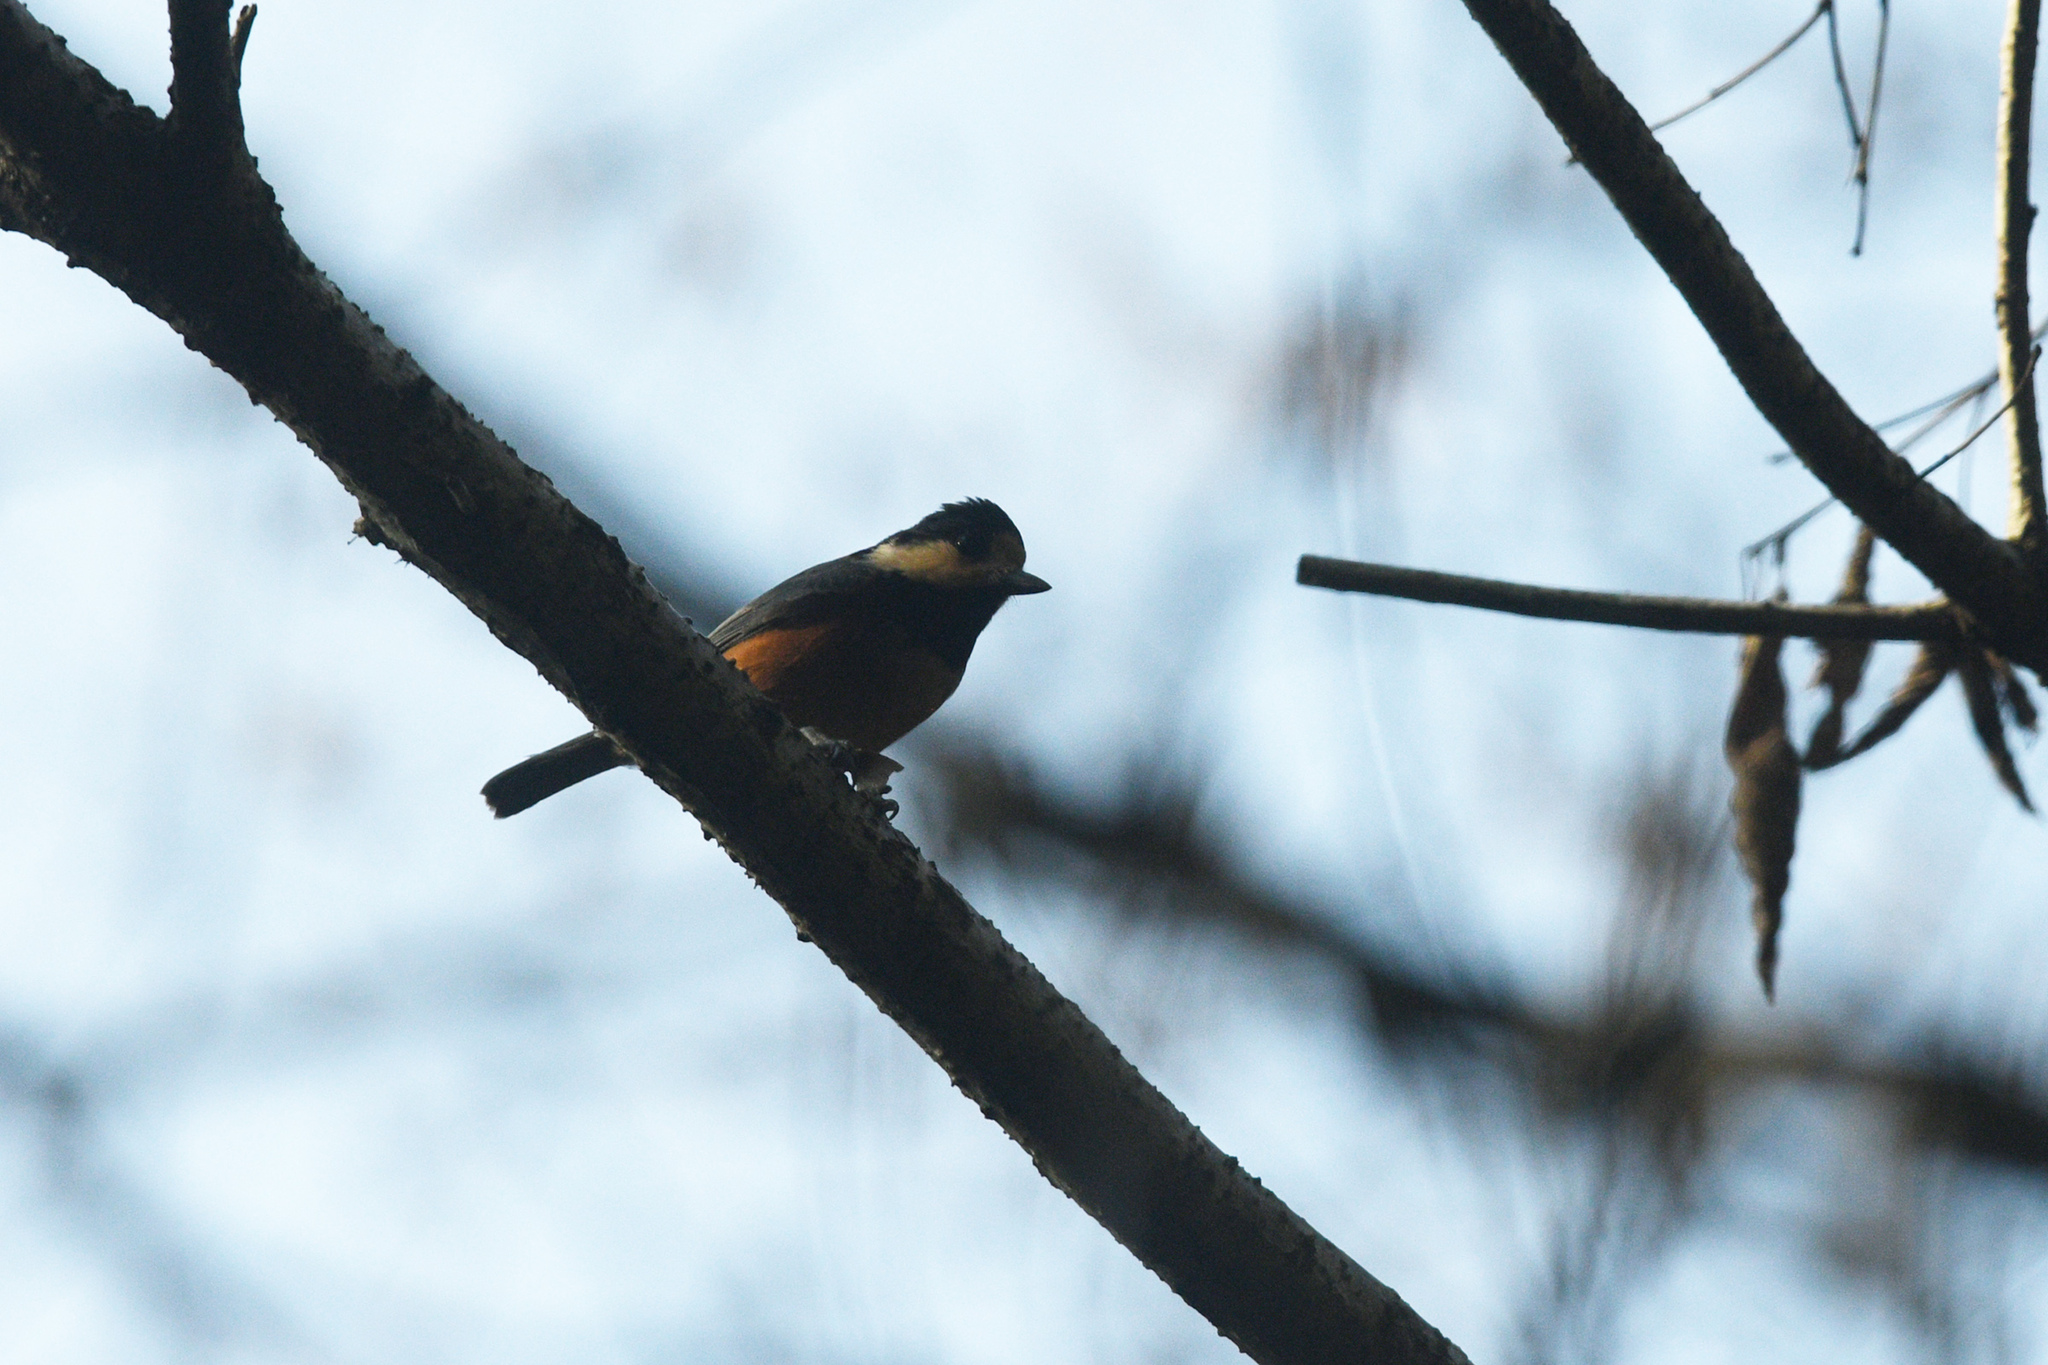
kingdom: Animalia
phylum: Chordata
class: Aves
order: Passeriformes
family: Paridae
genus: Poecile
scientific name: Poecile varius
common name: Varied tit
